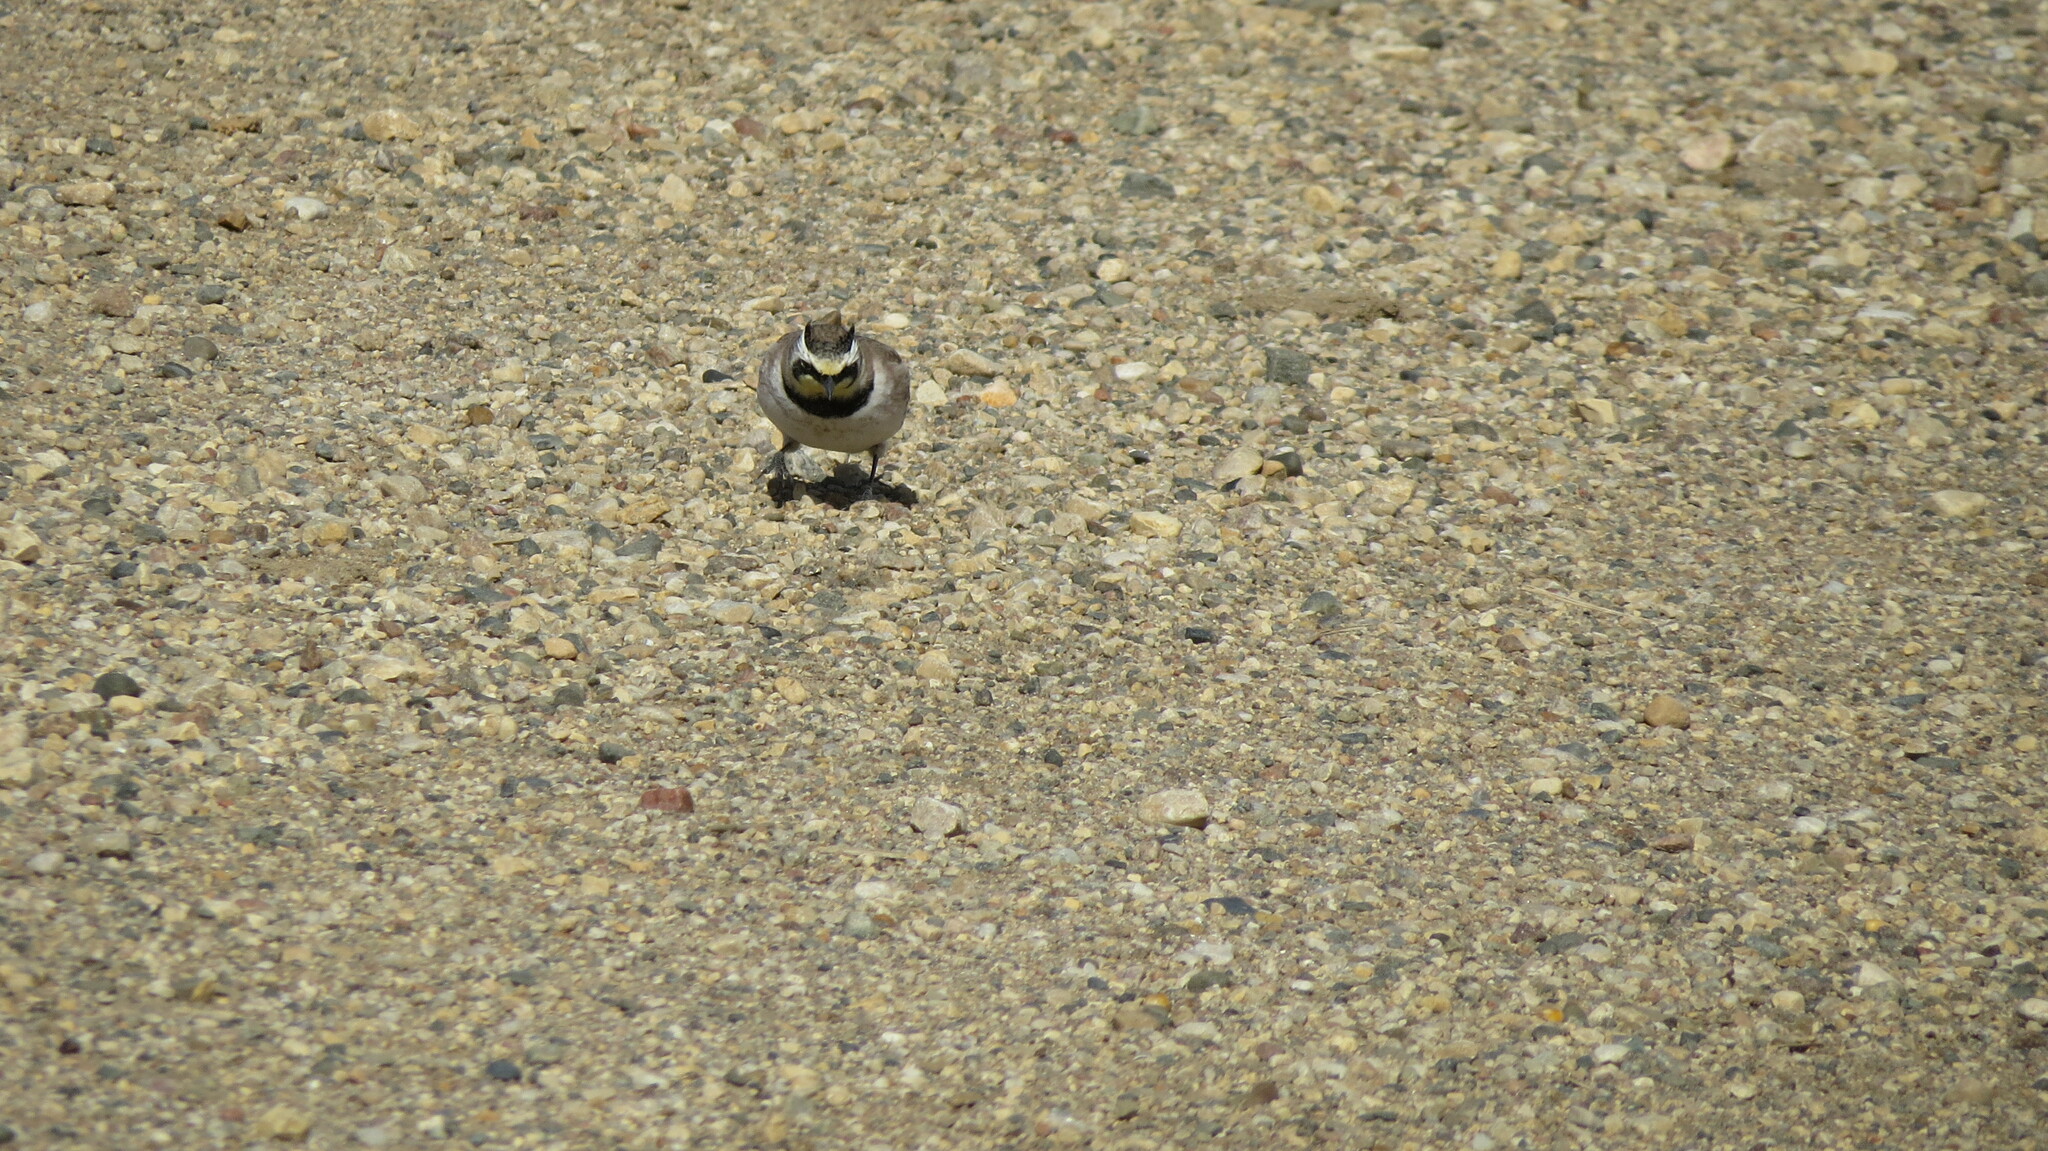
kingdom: Animalia
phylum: Chordata
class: Aves
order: Passeriformes
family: Alaudidae
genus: Eremophila
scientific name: Eremophila alpestris
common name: Horned lark
